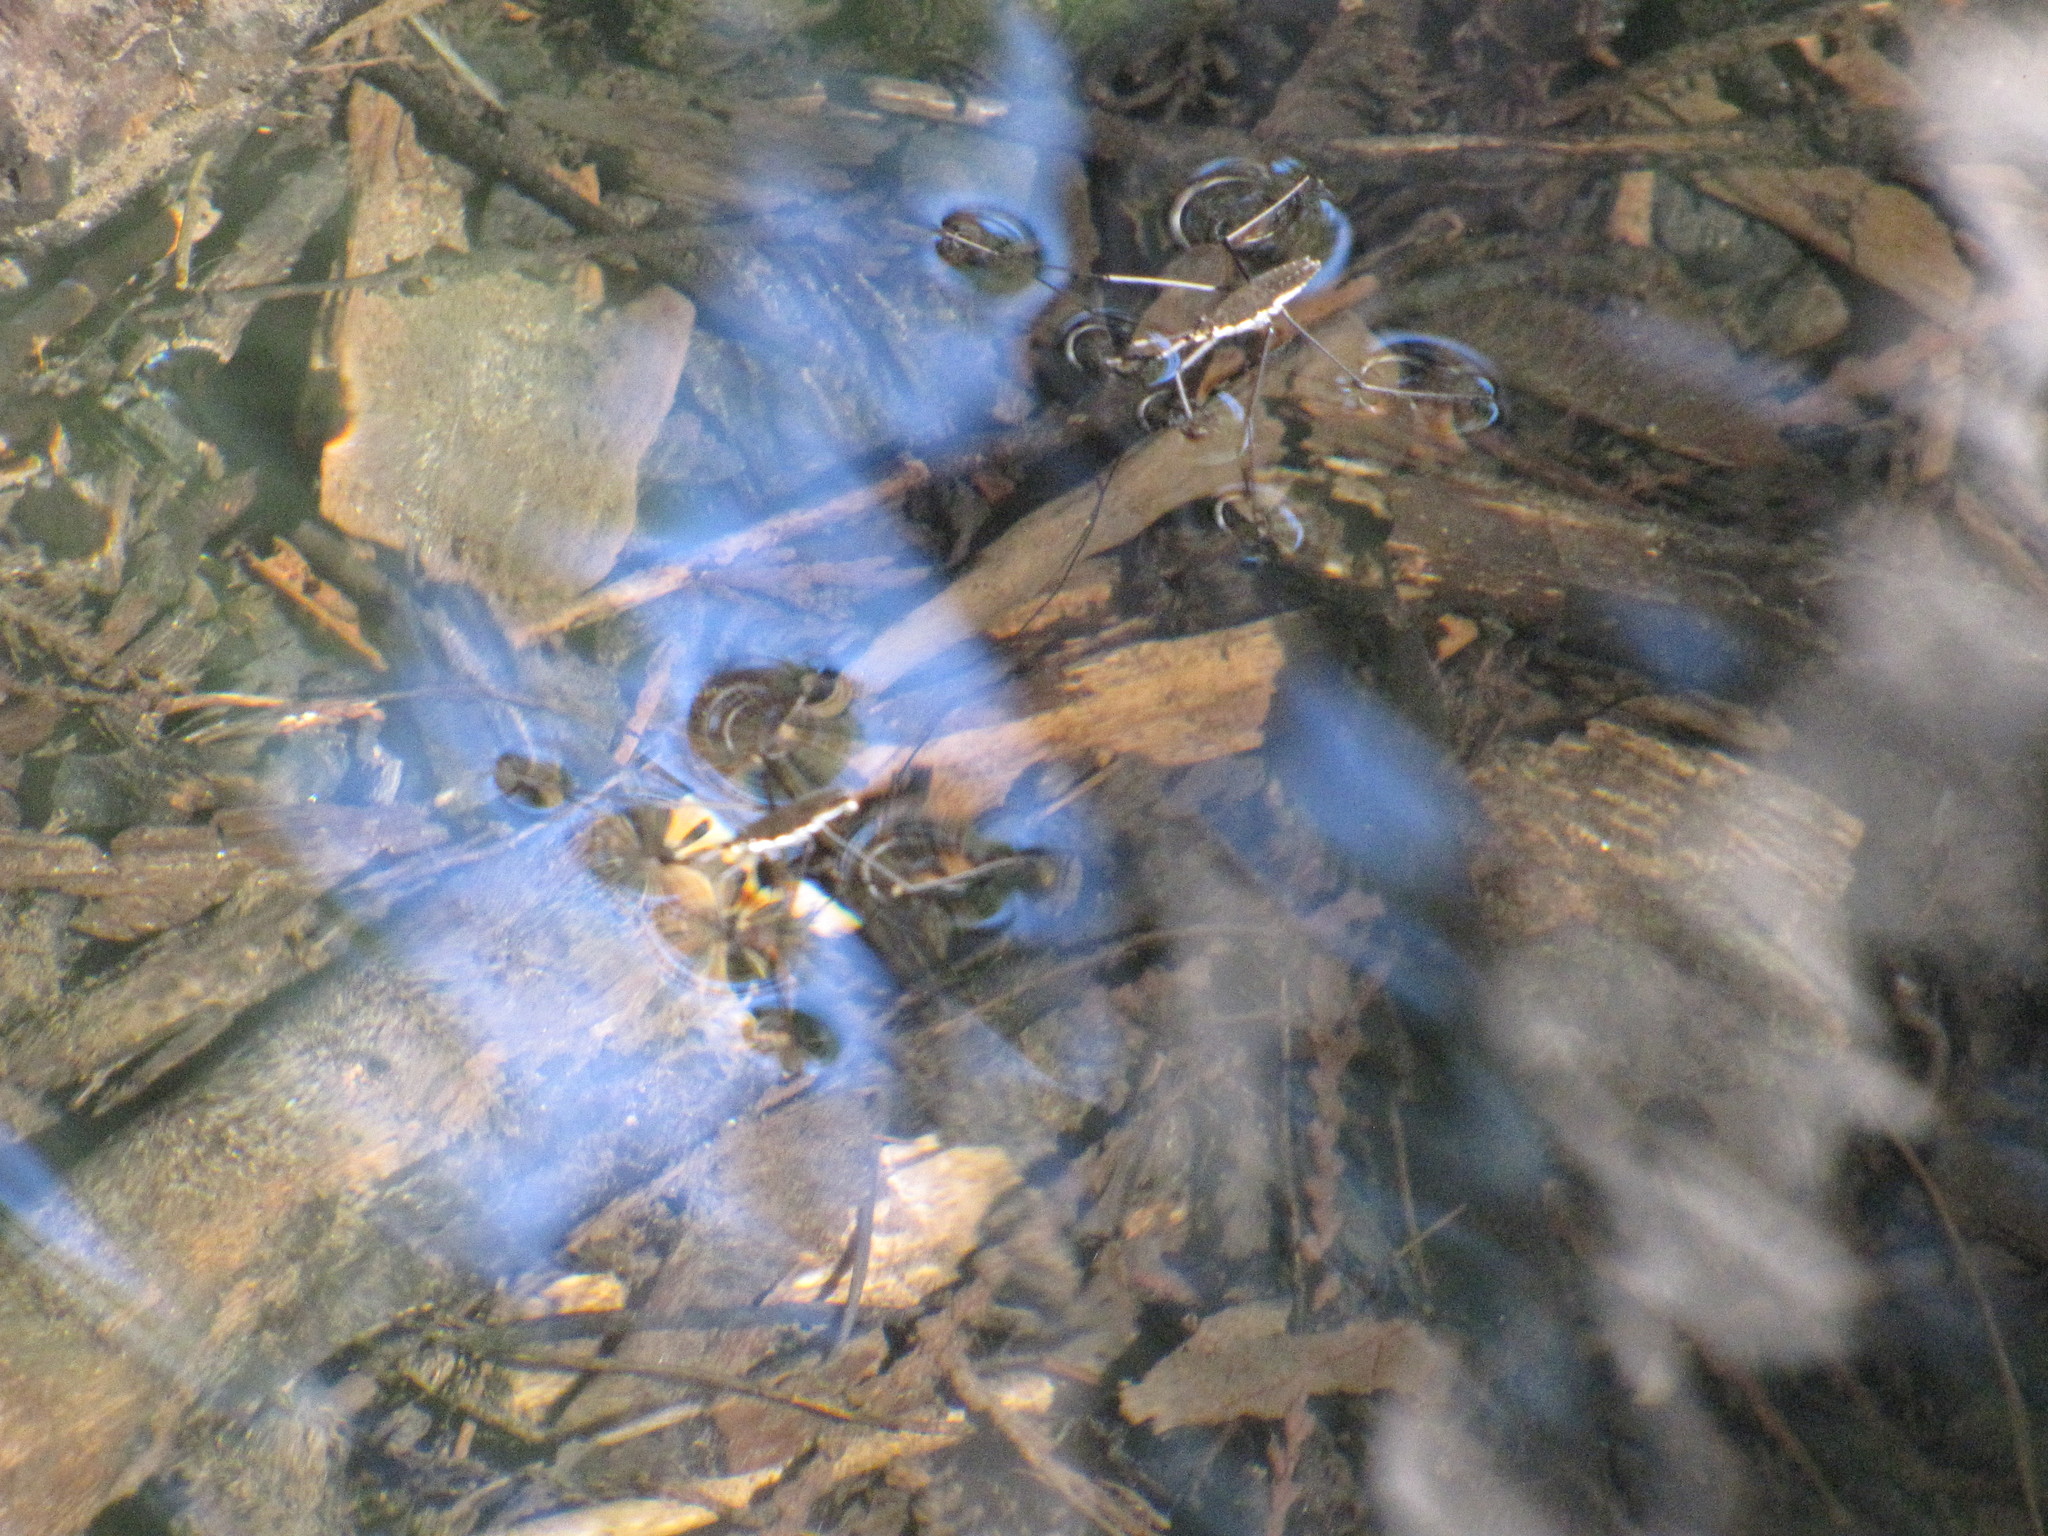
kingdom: Animalia
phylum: Arthropoda
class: Insecta
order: Hemiptera
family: Gerridae
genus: Aquarius
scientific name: Aquarius remigis
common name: Common water strider
